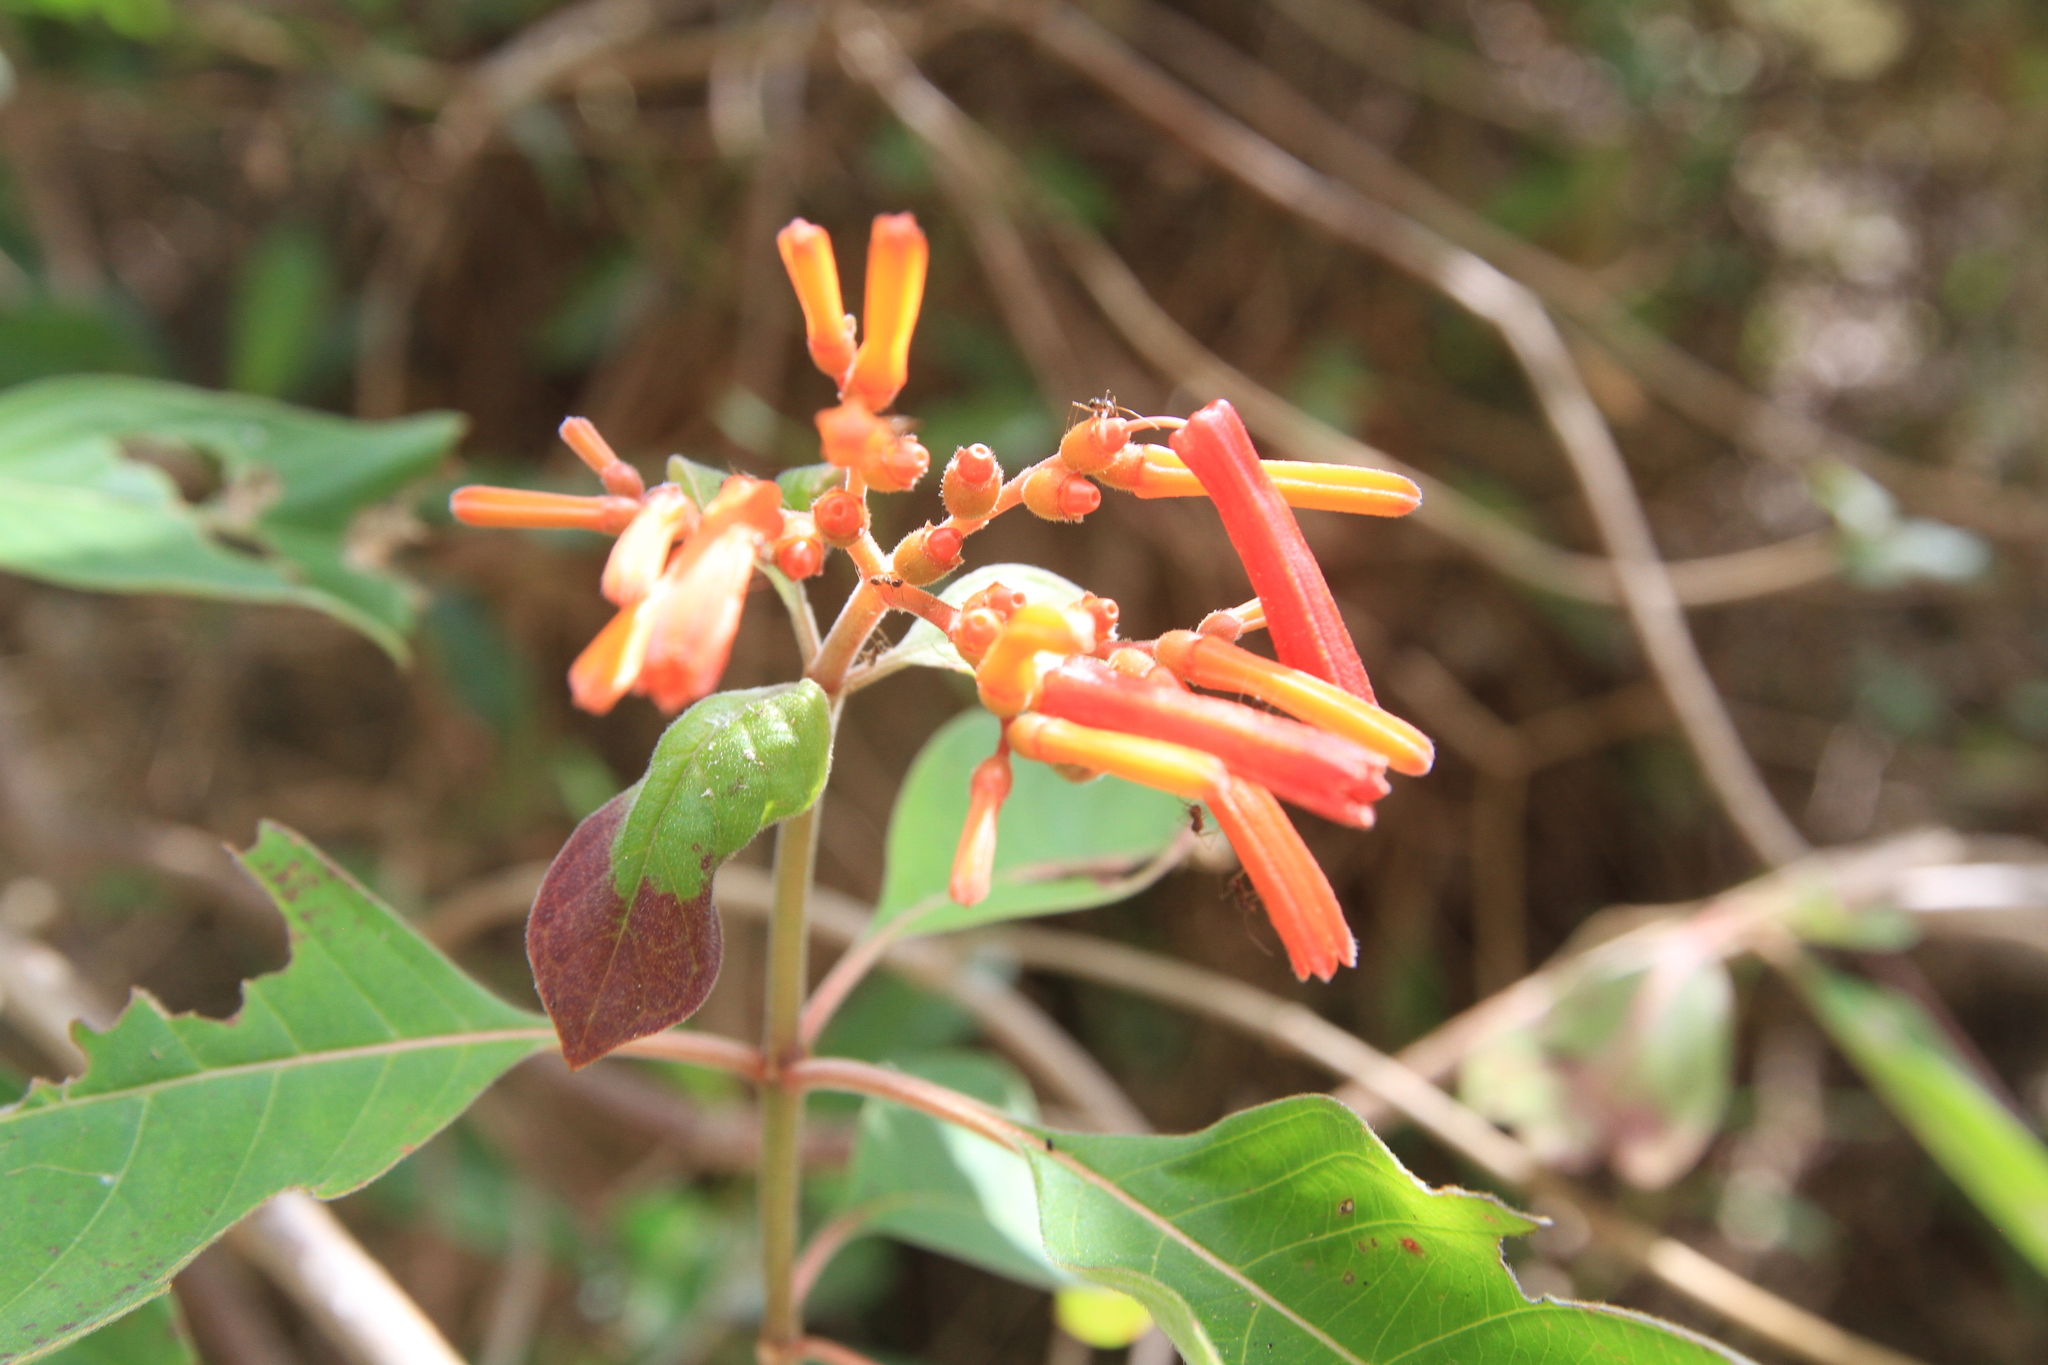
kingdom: Plantae
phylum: Tracheophyta
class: Magnoliopsida
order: Gentianales
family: Rubiaceae
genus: Hamelia
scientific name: Hamelia patens
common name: Redhead
